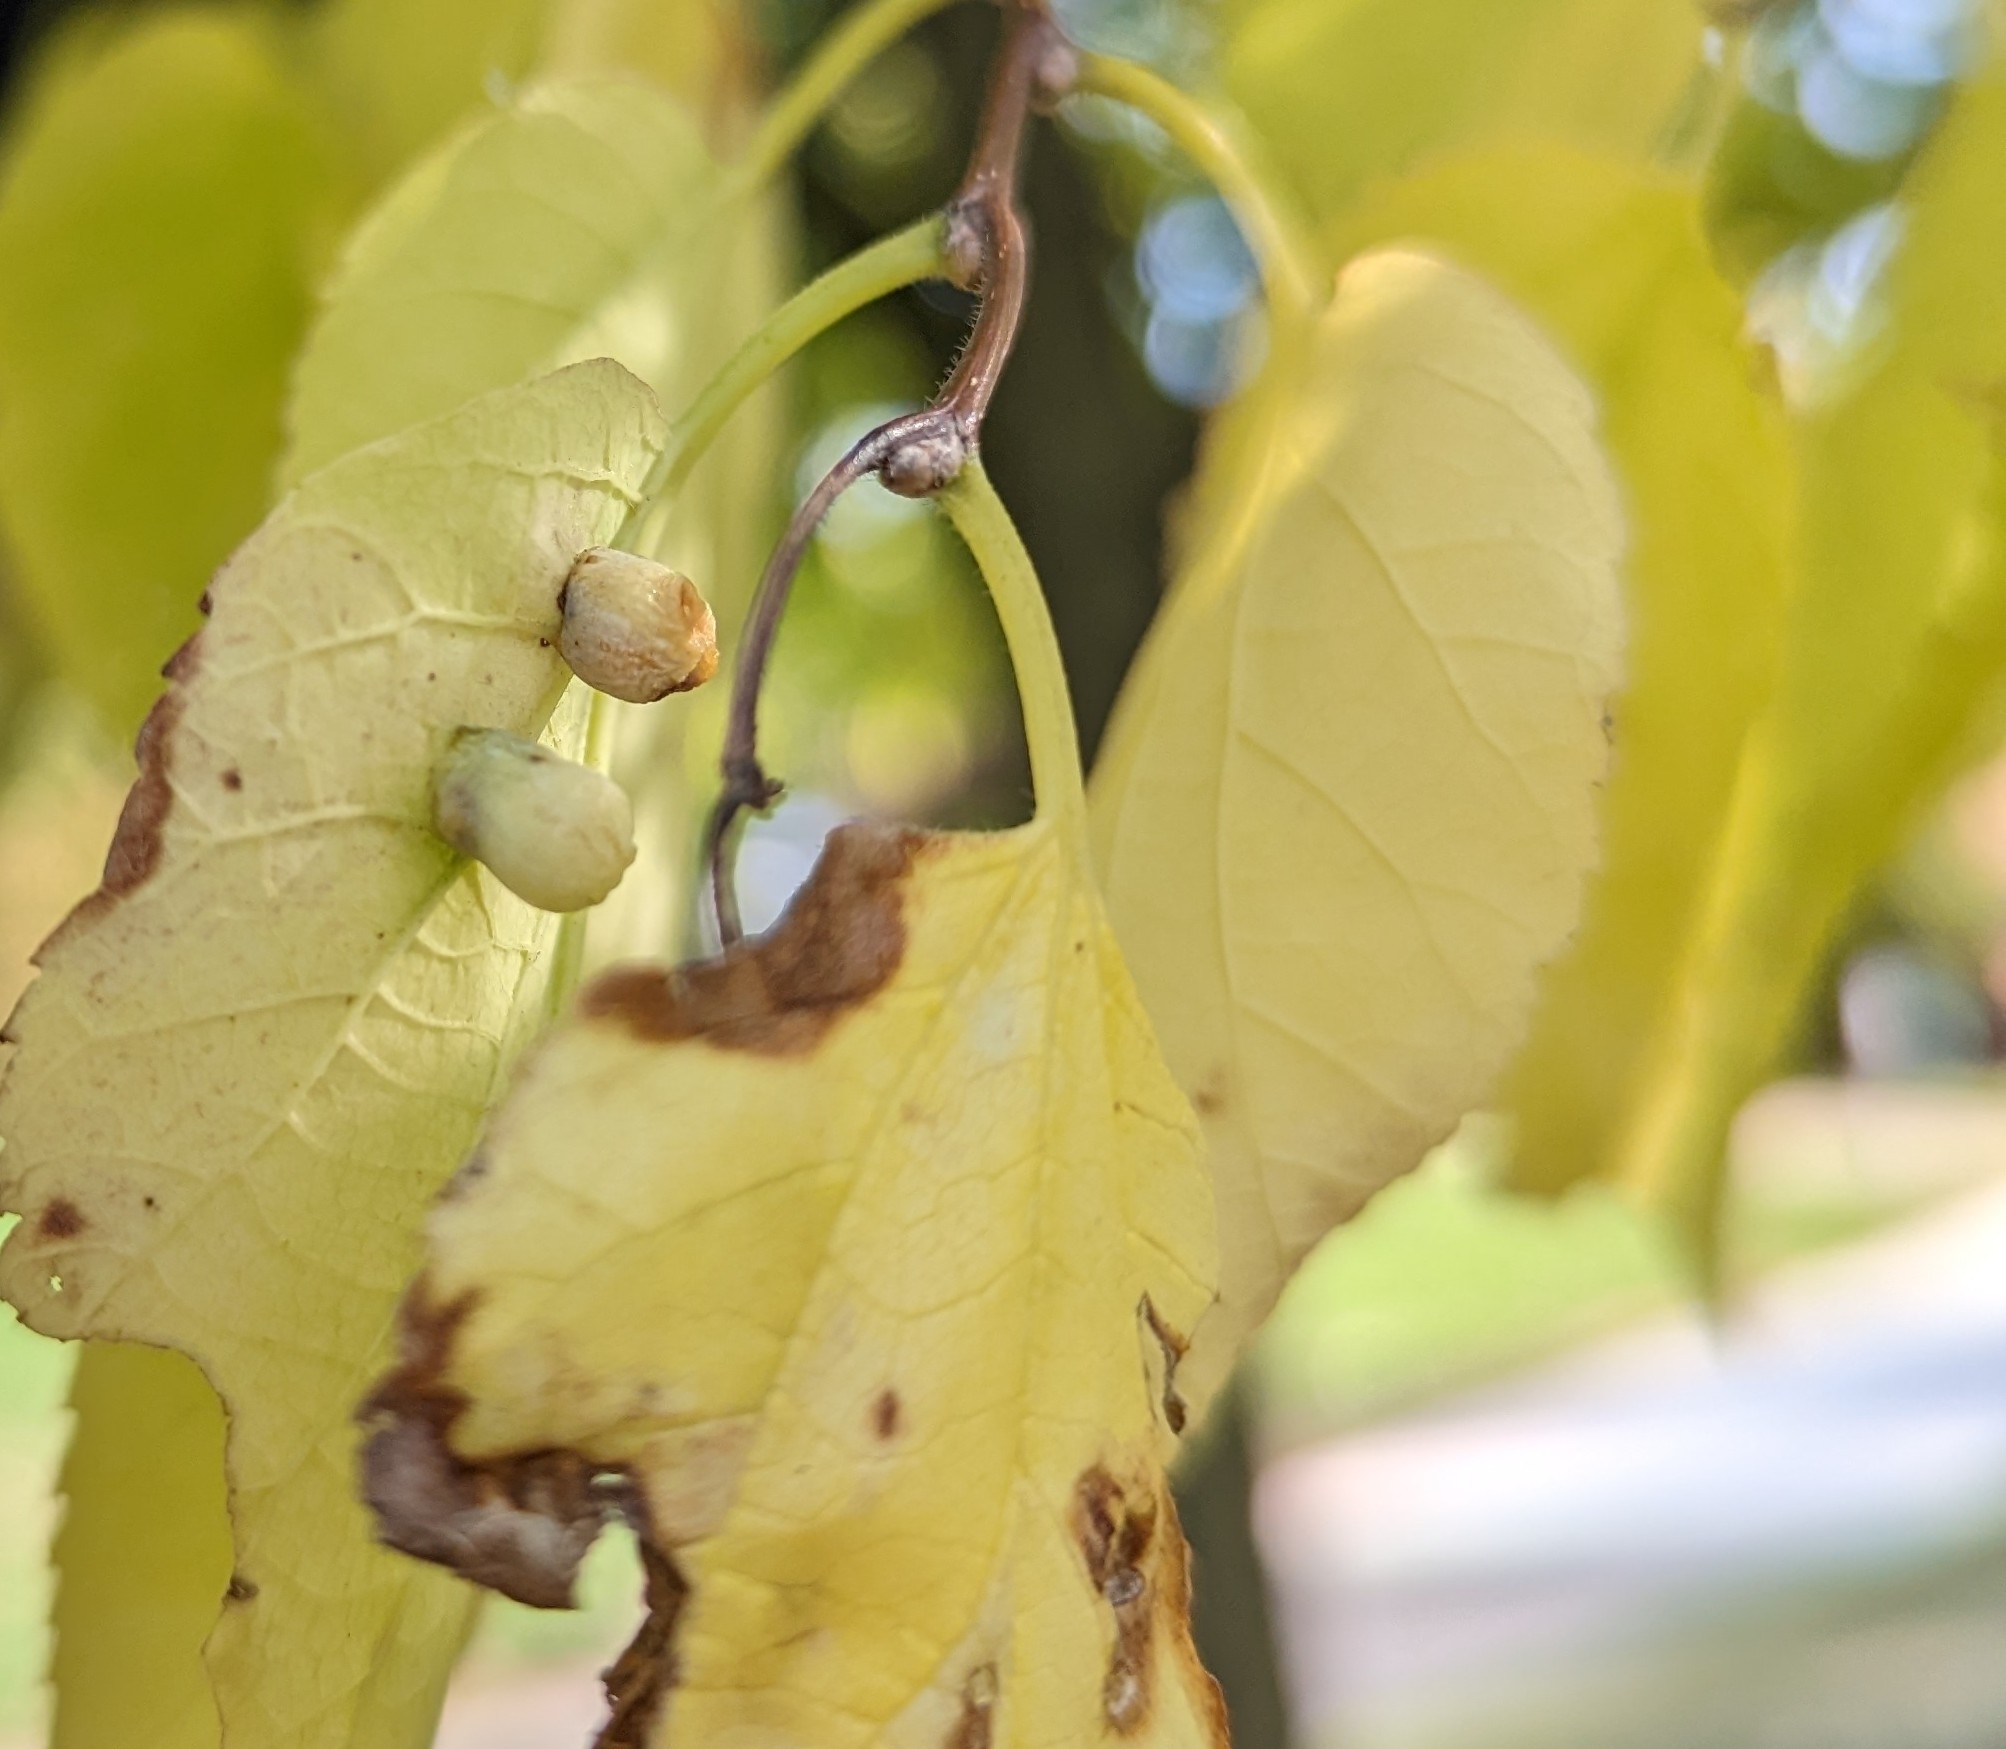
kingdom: Animalia
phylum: Arthropoda
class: Insecta
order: Hemiptera
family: Aphalaridae
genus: Pachypsylla
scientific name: Pachypsylla celtidismamma
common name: Hackberry nipplegall psyllid
